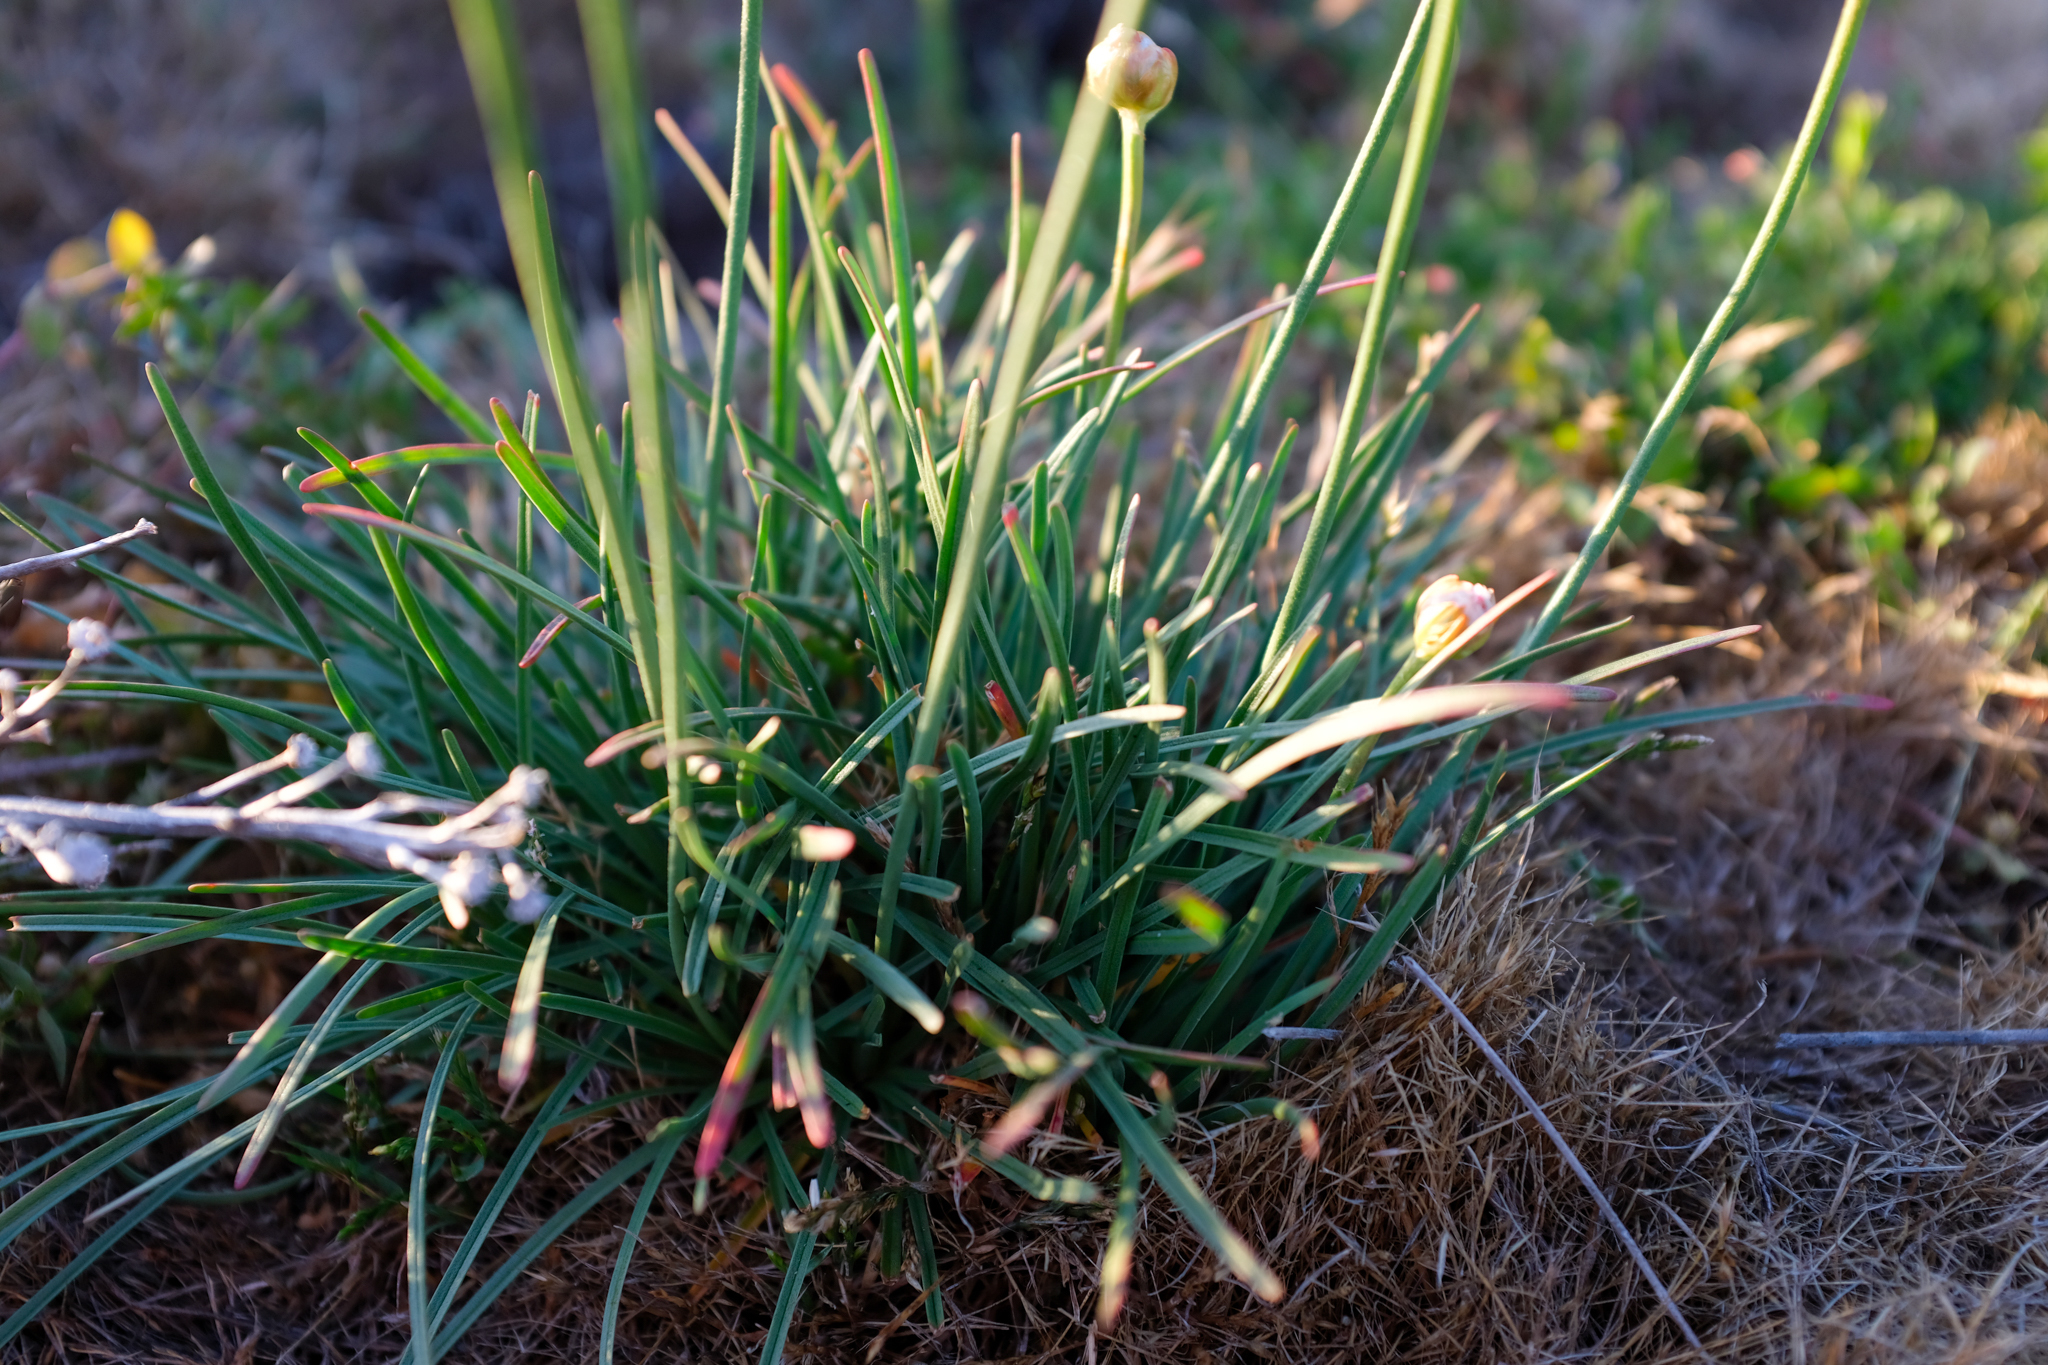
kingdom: Plantae
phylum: Tracheophyta
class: Magnoliopsida
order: Caryophyllales
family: Plumbaginaceae
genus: Armeria
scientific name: Armeria maritima
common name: Thrift
